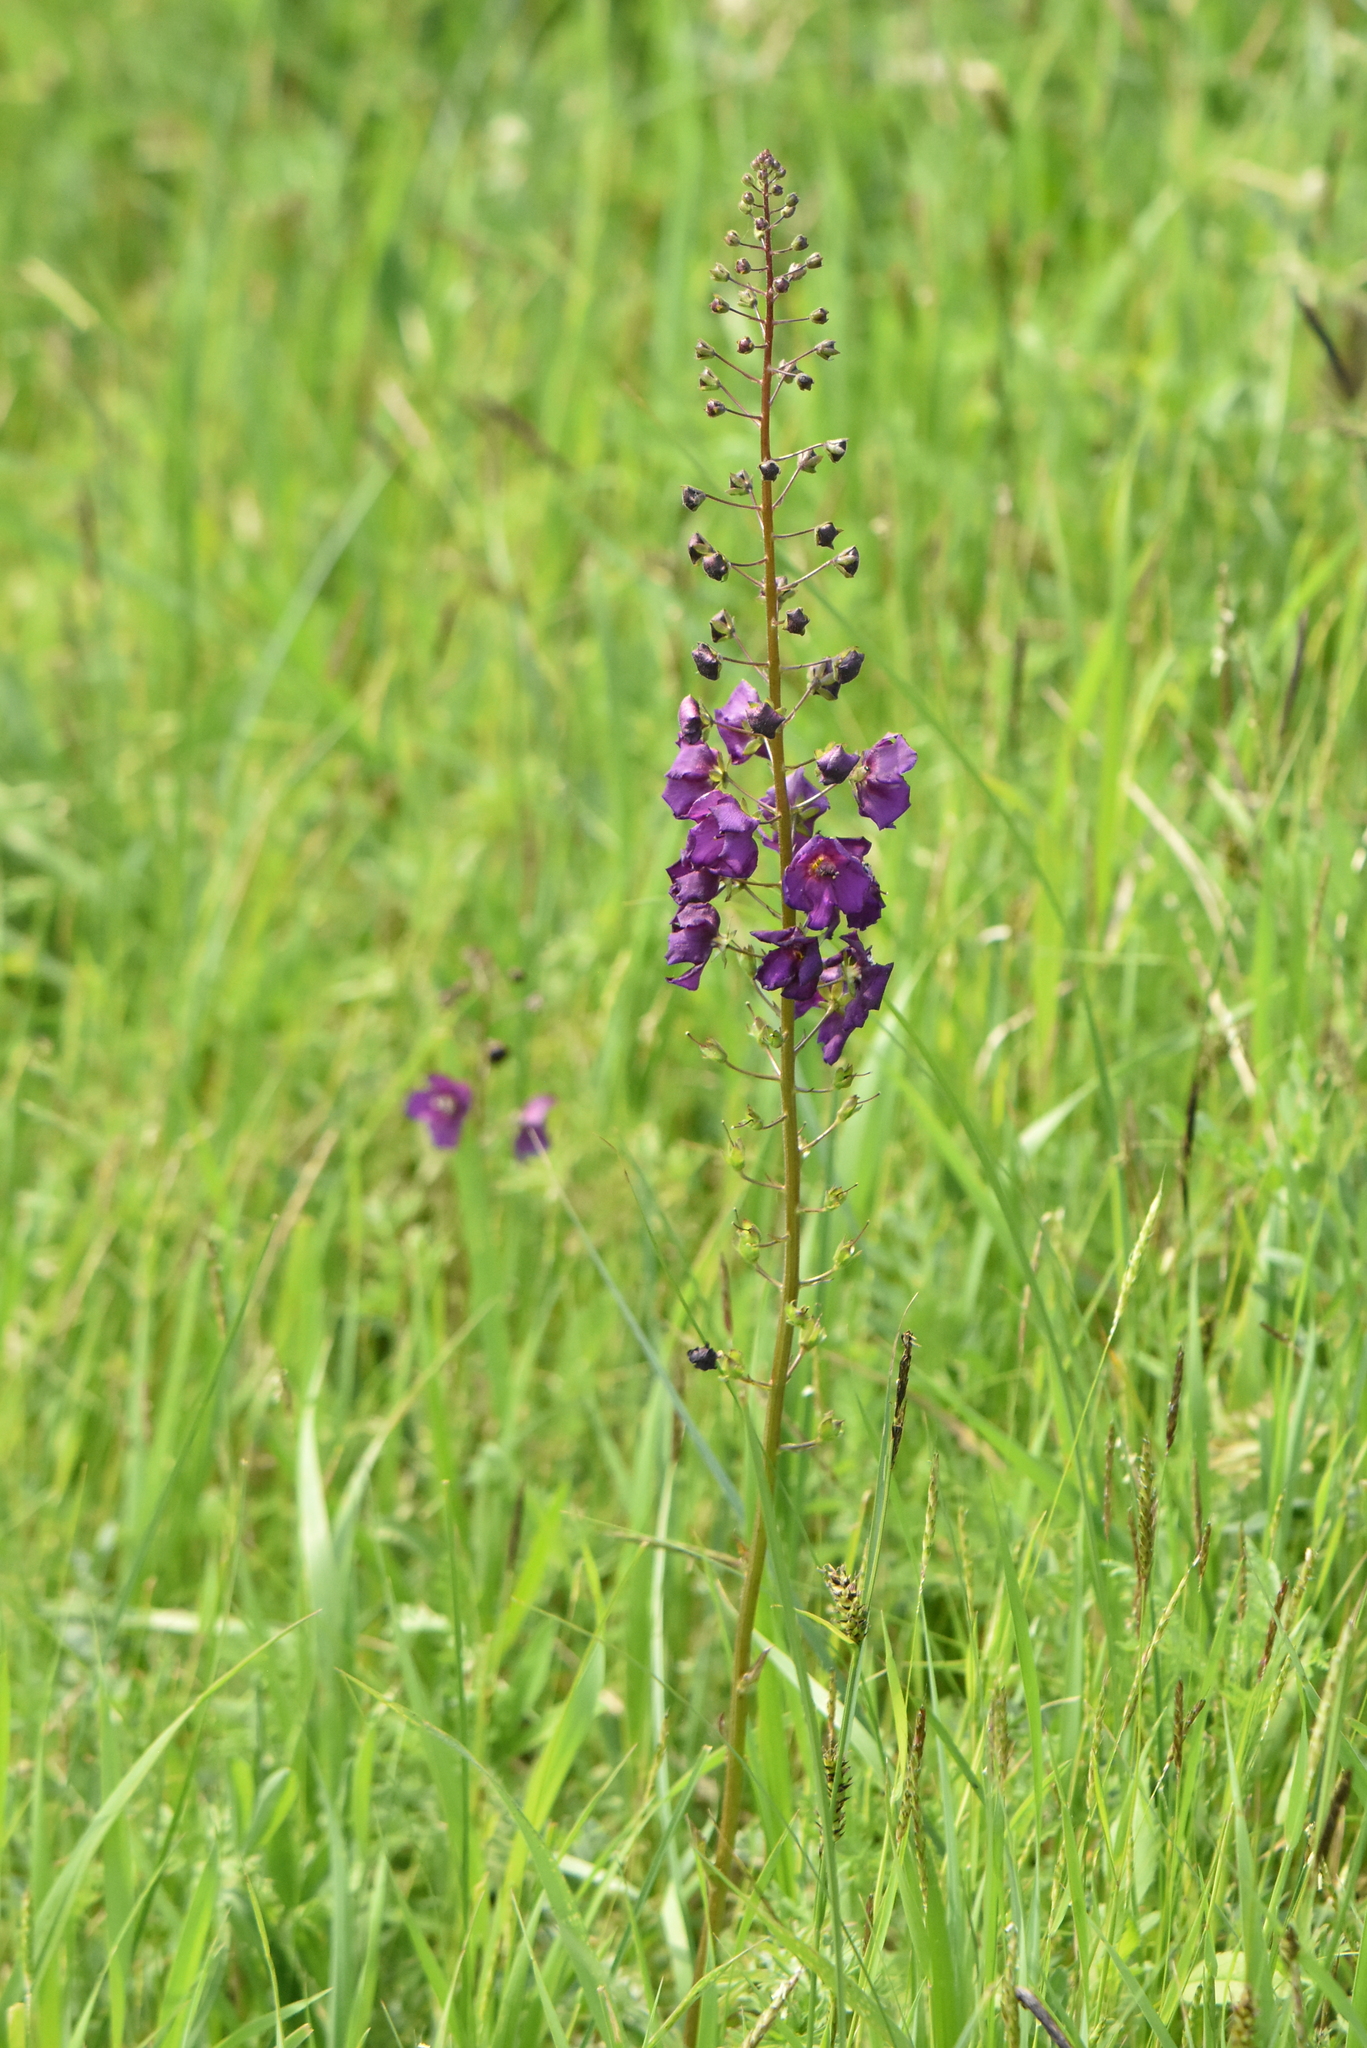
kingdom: Plantae
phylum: Tracheophyta
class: Magnoliopsida
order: Lamiales
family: Scrophulariaceae
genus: Verbascum
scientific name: Verbascum phoeniceum
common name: Purple mullein
